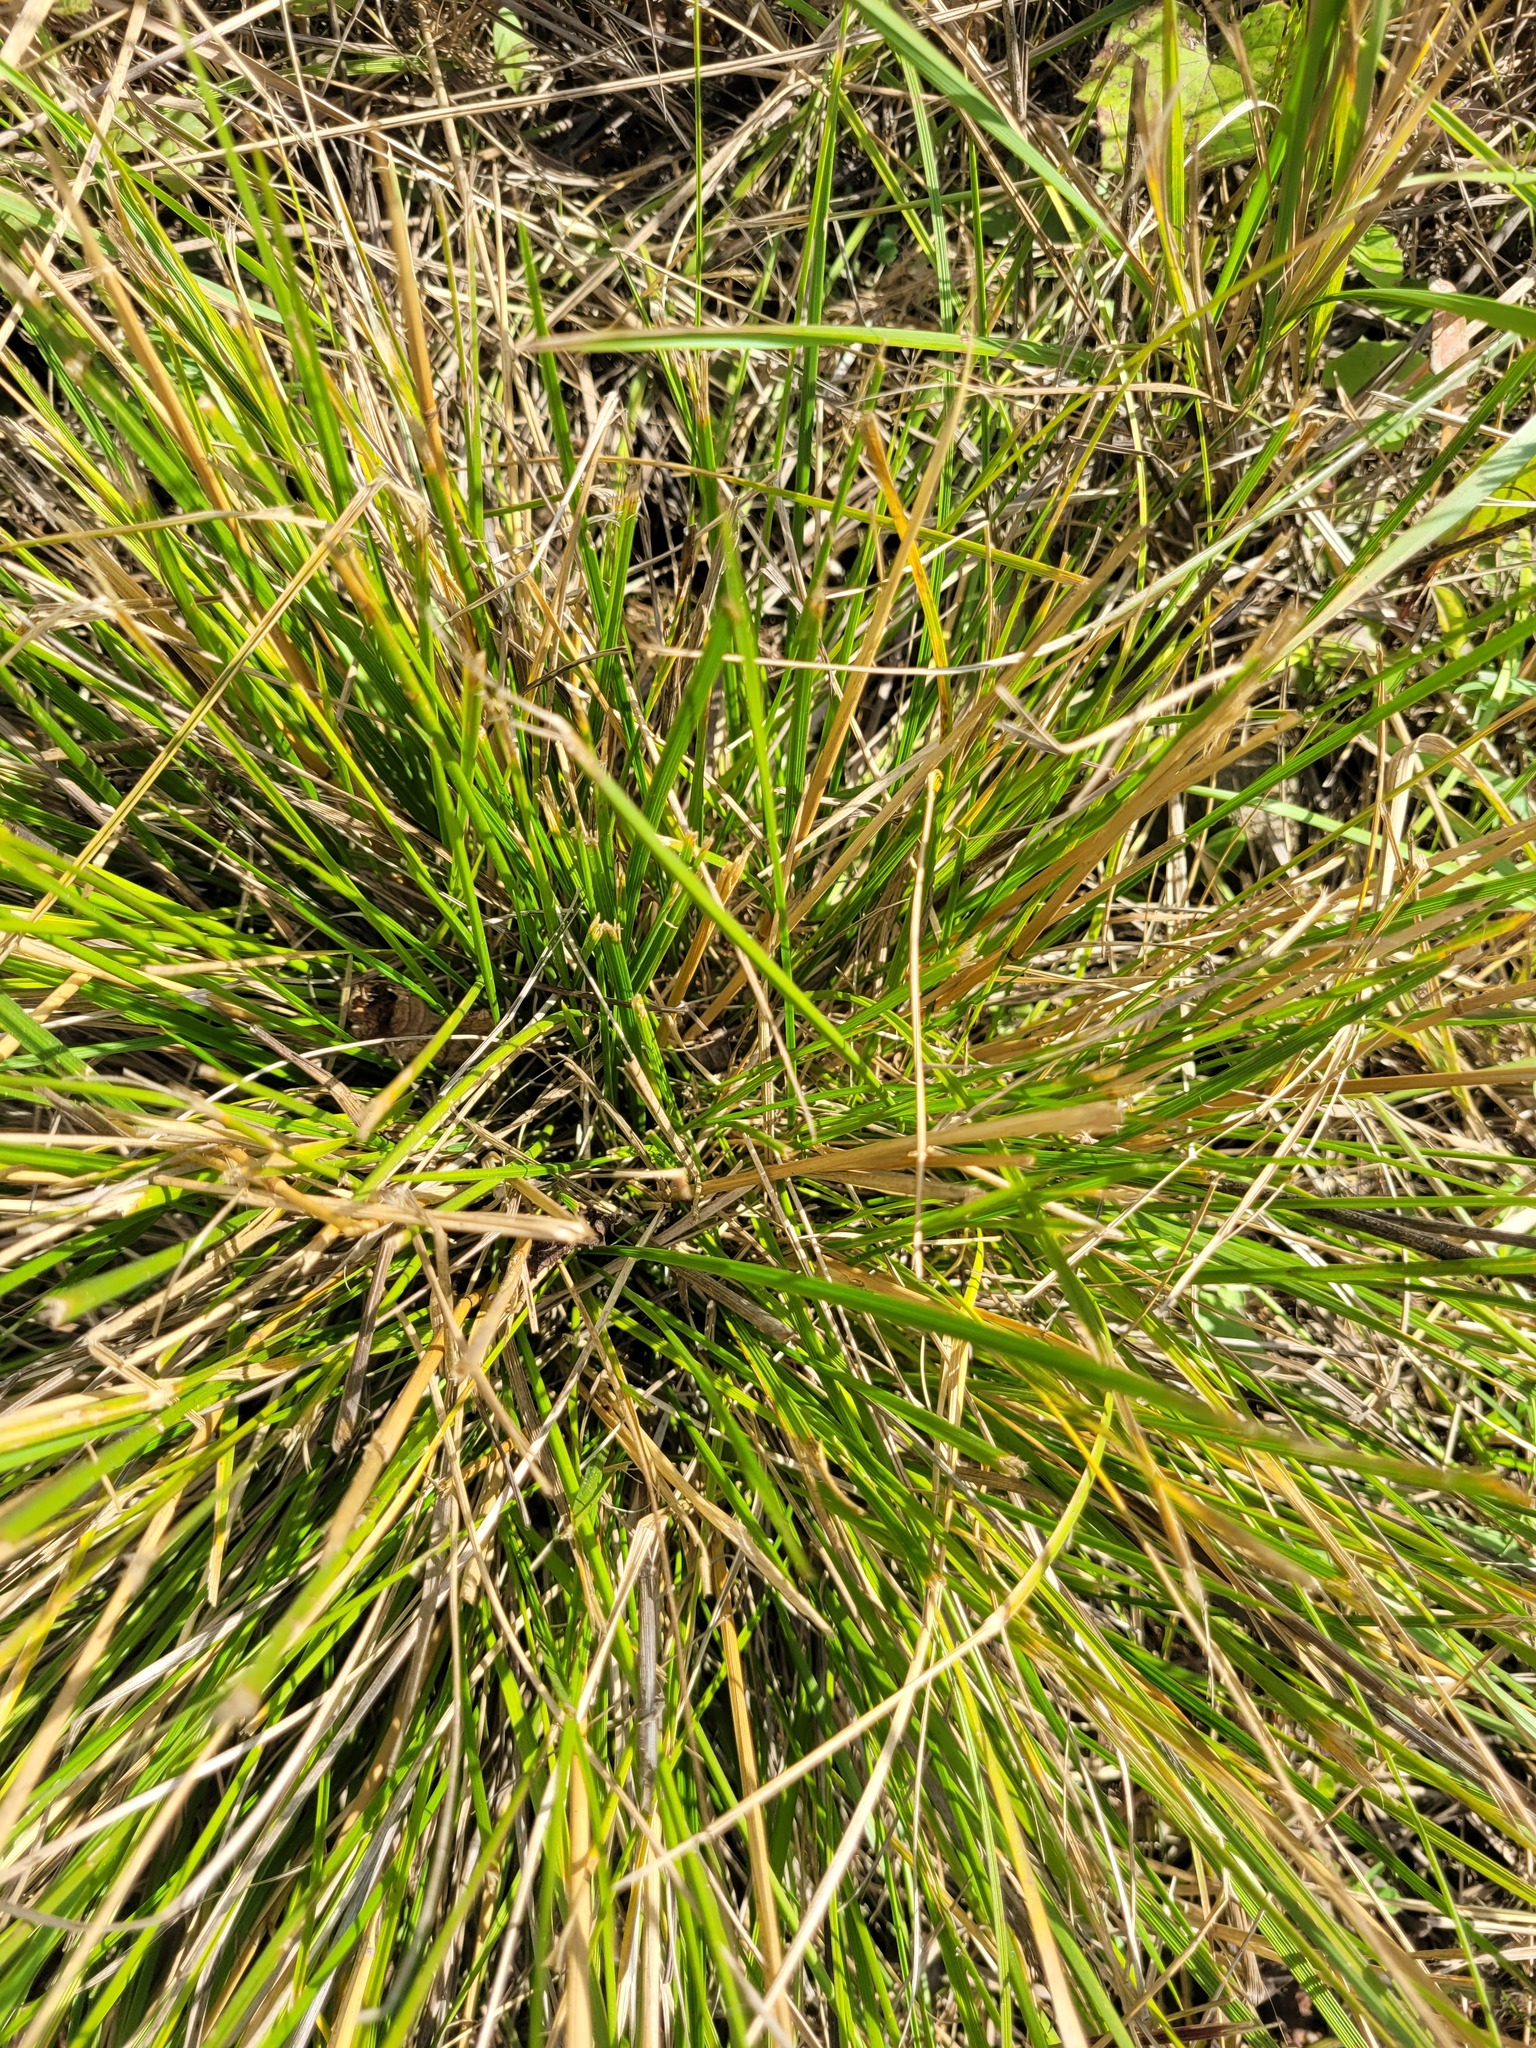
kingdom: Plantae
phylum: Tracheophyta
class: Liliopsida
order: Poales
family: Poaceae
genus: Deschampsia
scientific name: Deschampsia cespitosa
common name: Tufted hair-grass
